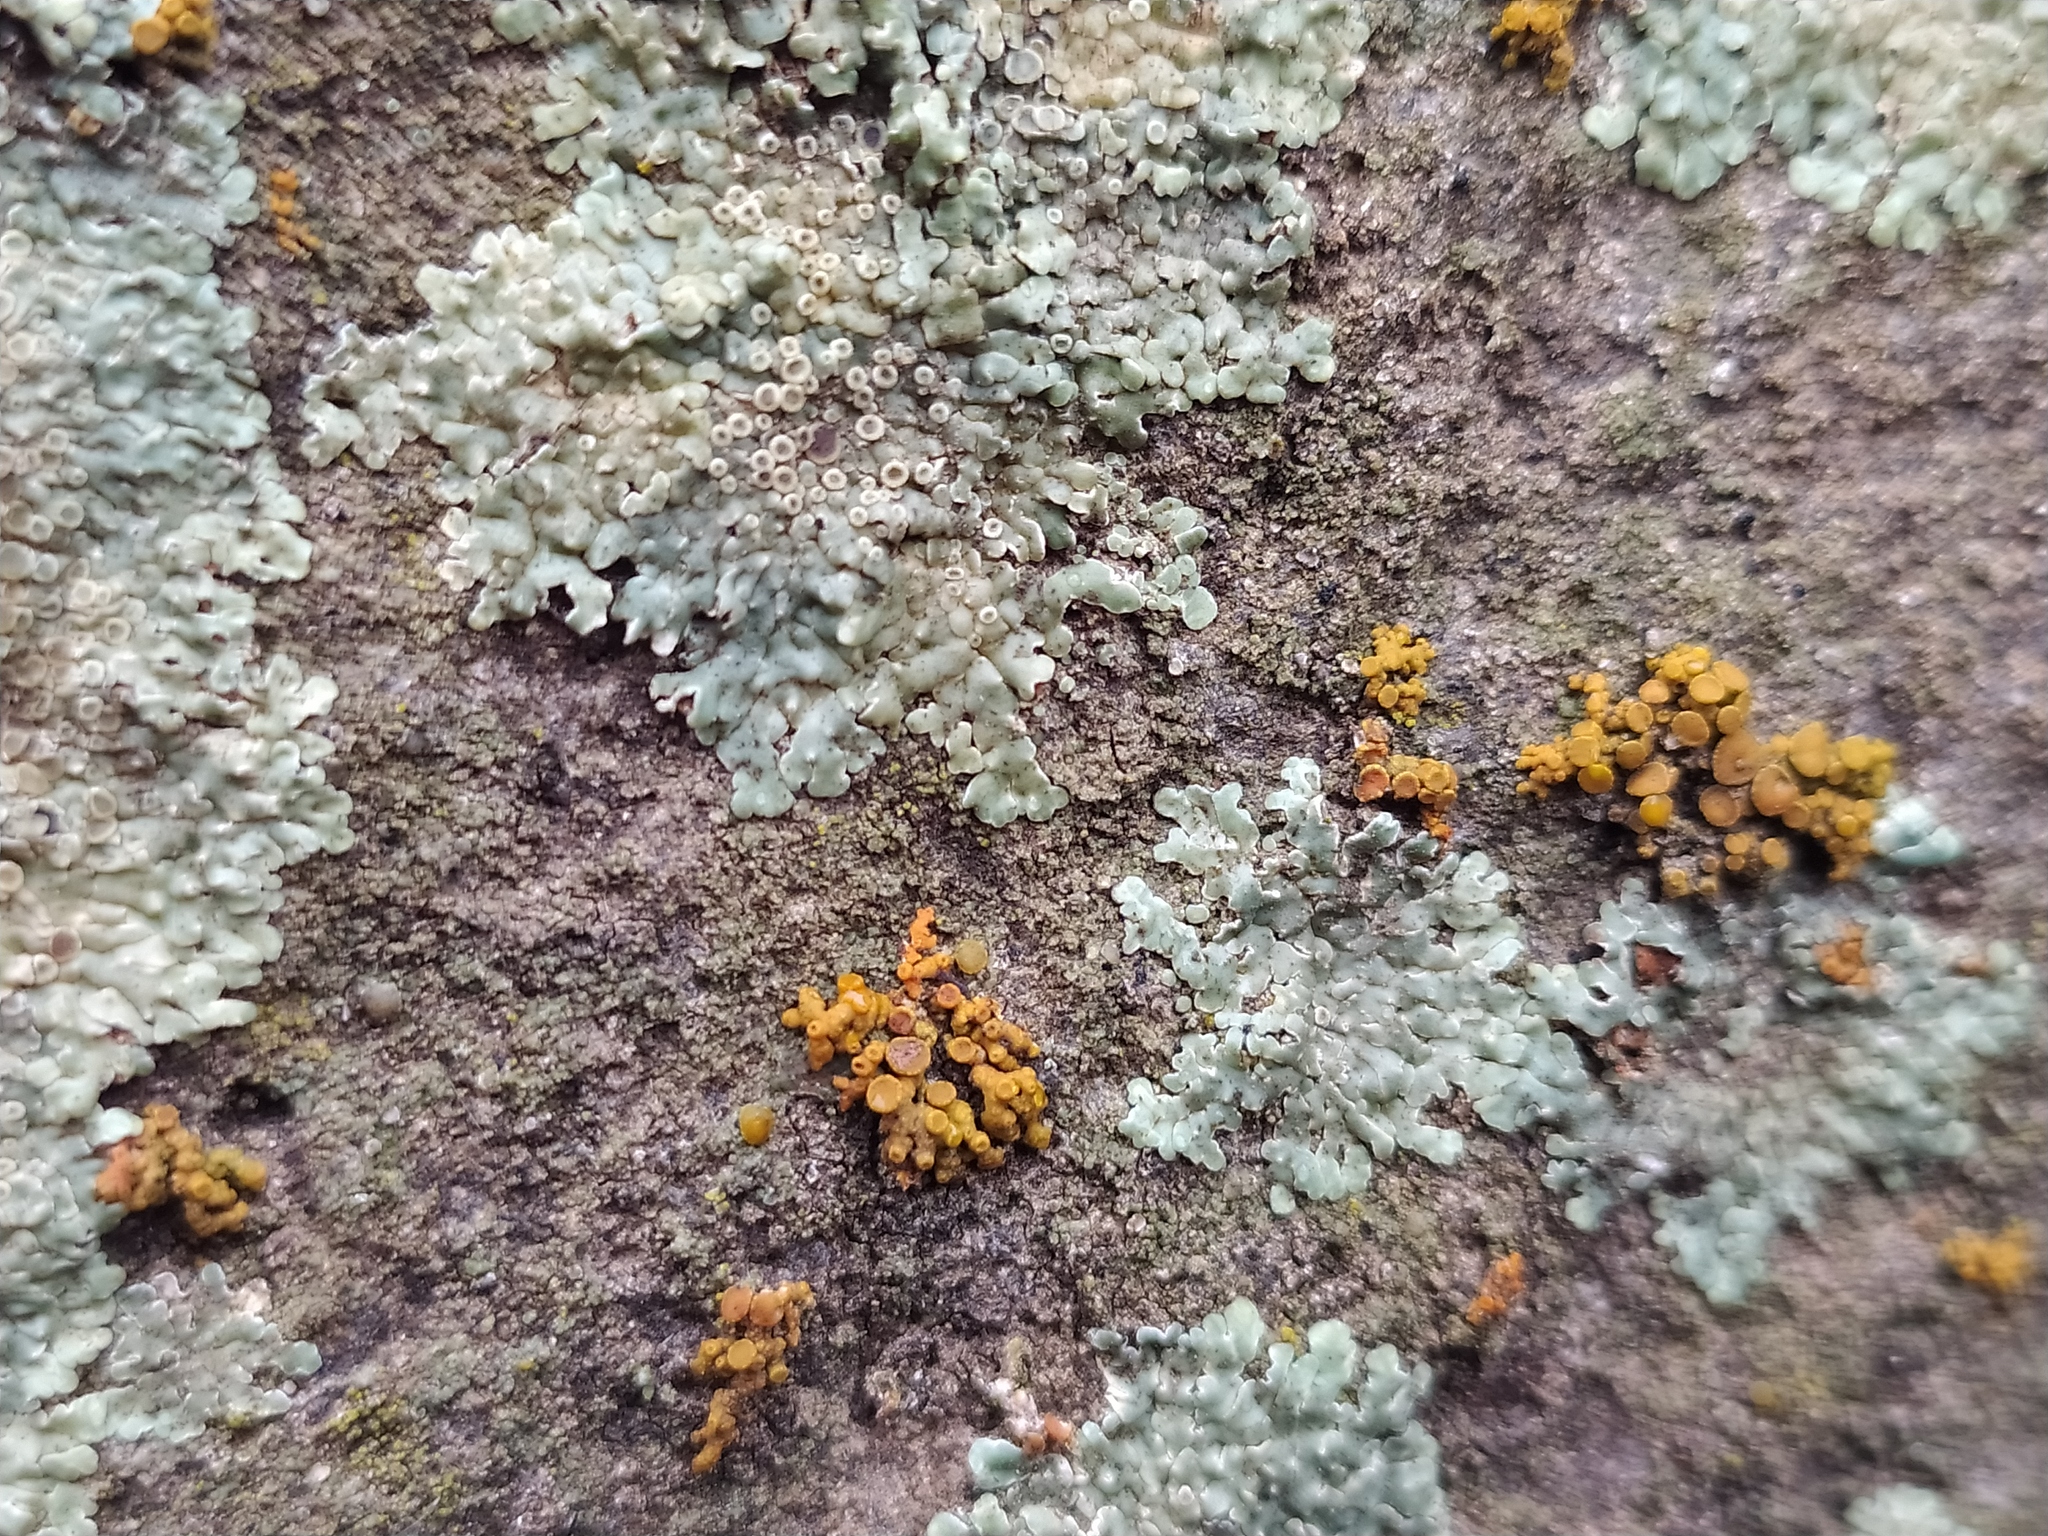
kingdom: Fungi
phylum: Ascomycota
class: Lecanoromycetes
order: Teloschistales
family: Teloschistaceae
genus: Xanthoria
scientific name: Xanthoria elegans
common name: Elegant sunburst lichen
